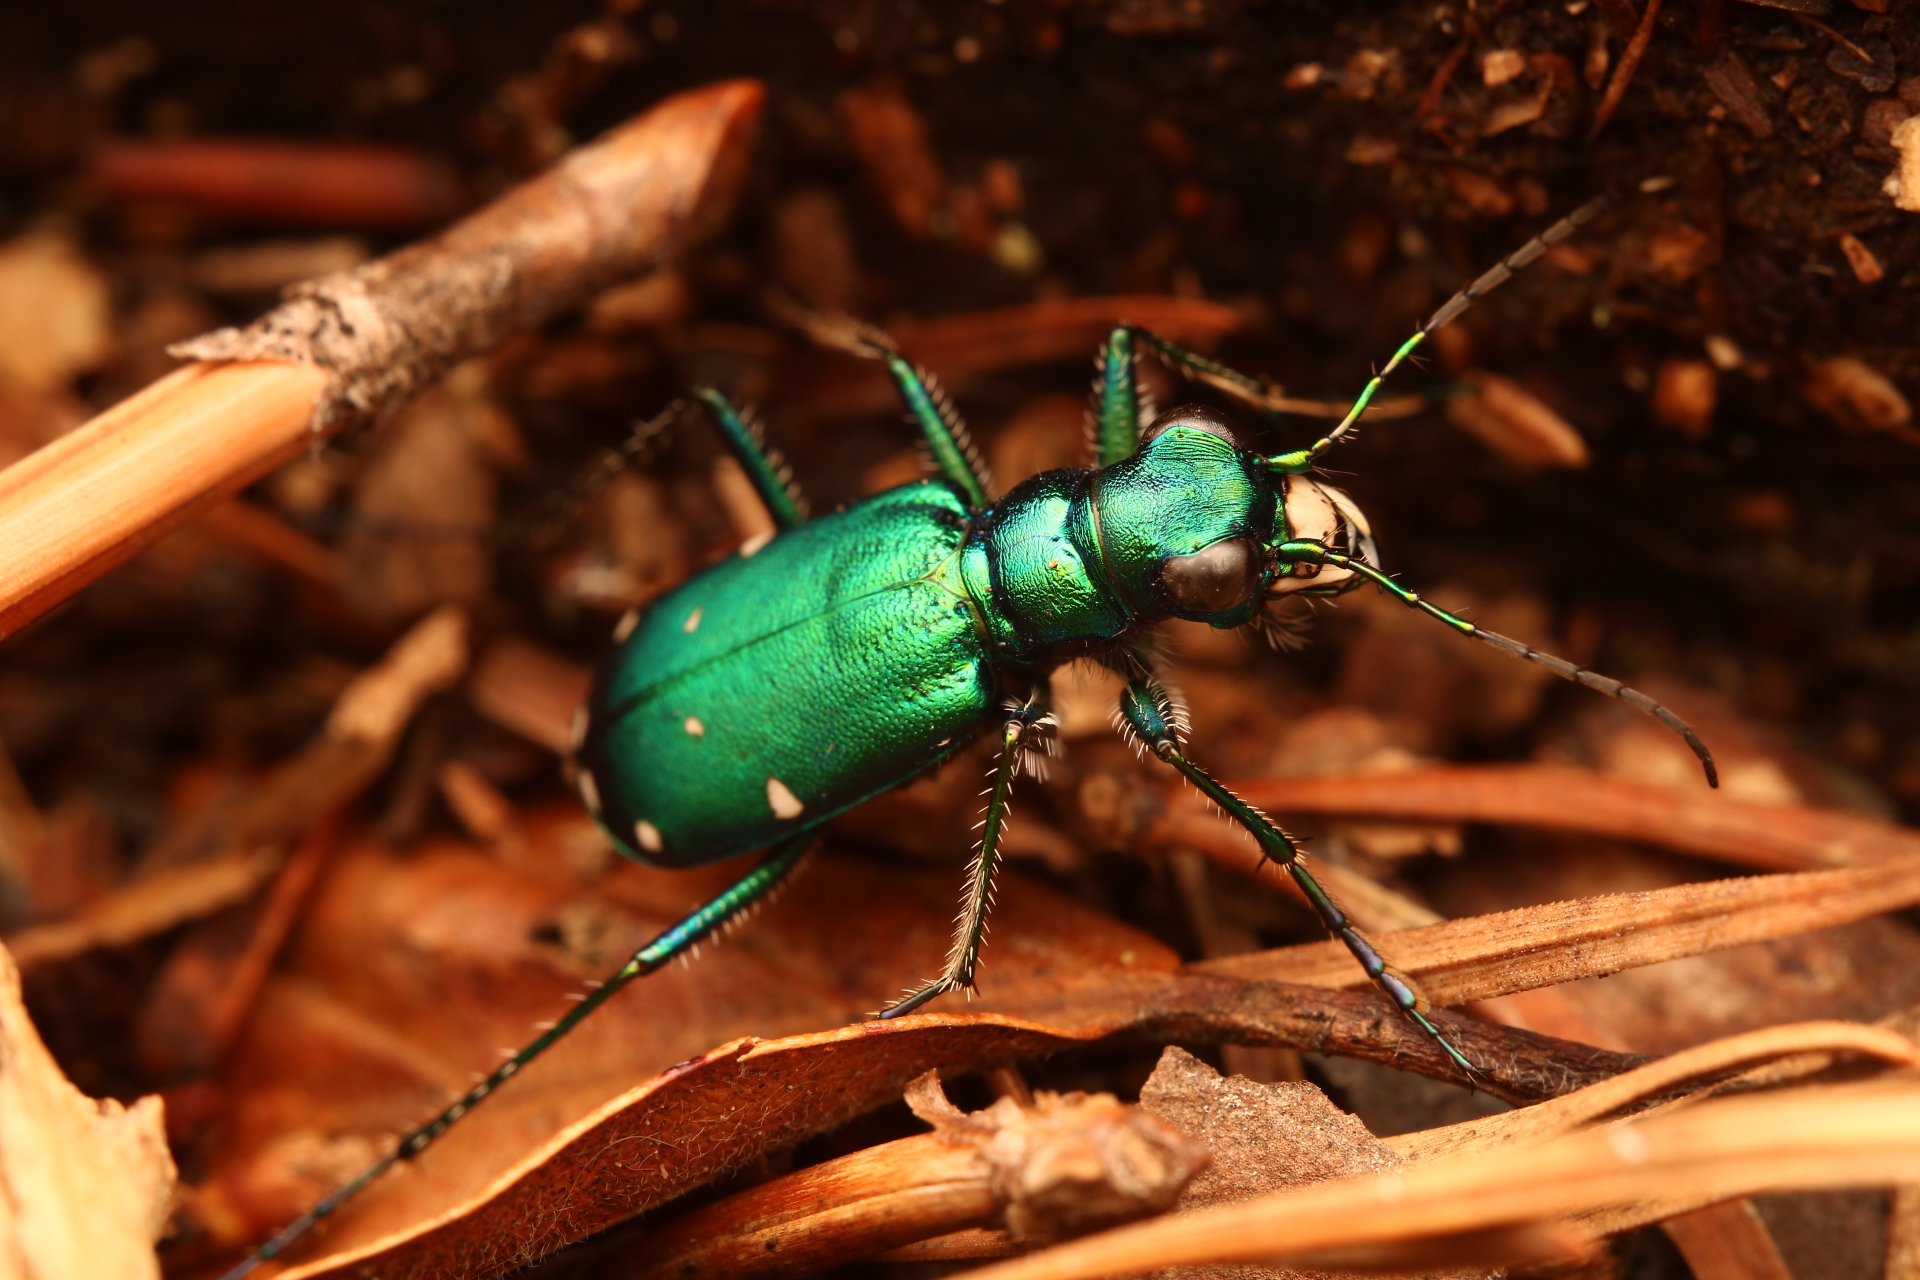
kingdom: Animalia
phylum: Arthropoda
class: Insecta
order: Coleoptera
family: Carabidae
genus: Cicindela
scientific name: Cicindela sexguttata
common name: Six-spotted tiger beetle
